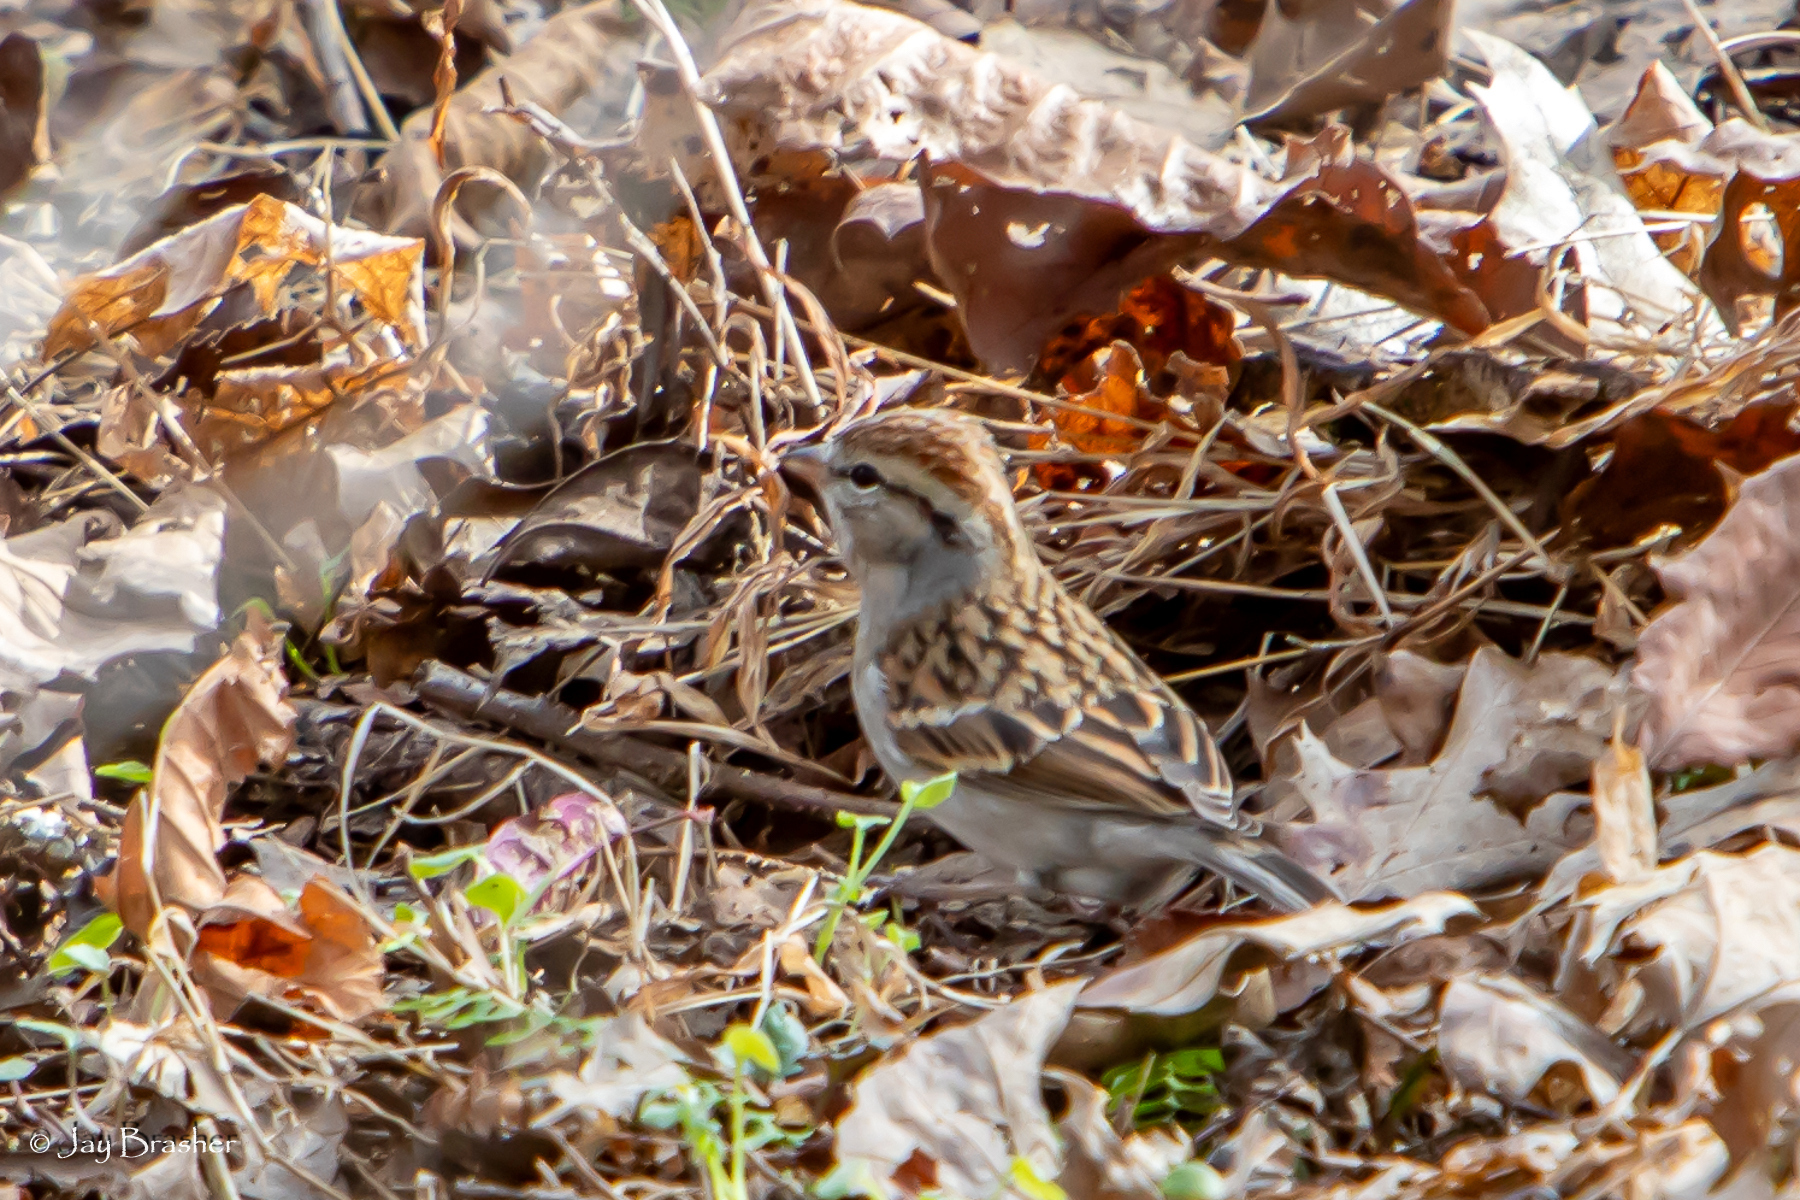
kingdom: Animalia
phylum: Chordata
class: Aves
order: Passeriformes
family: Passerellidae
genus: Spizella
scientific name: Spizella passerina
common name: Chipping sparrow
